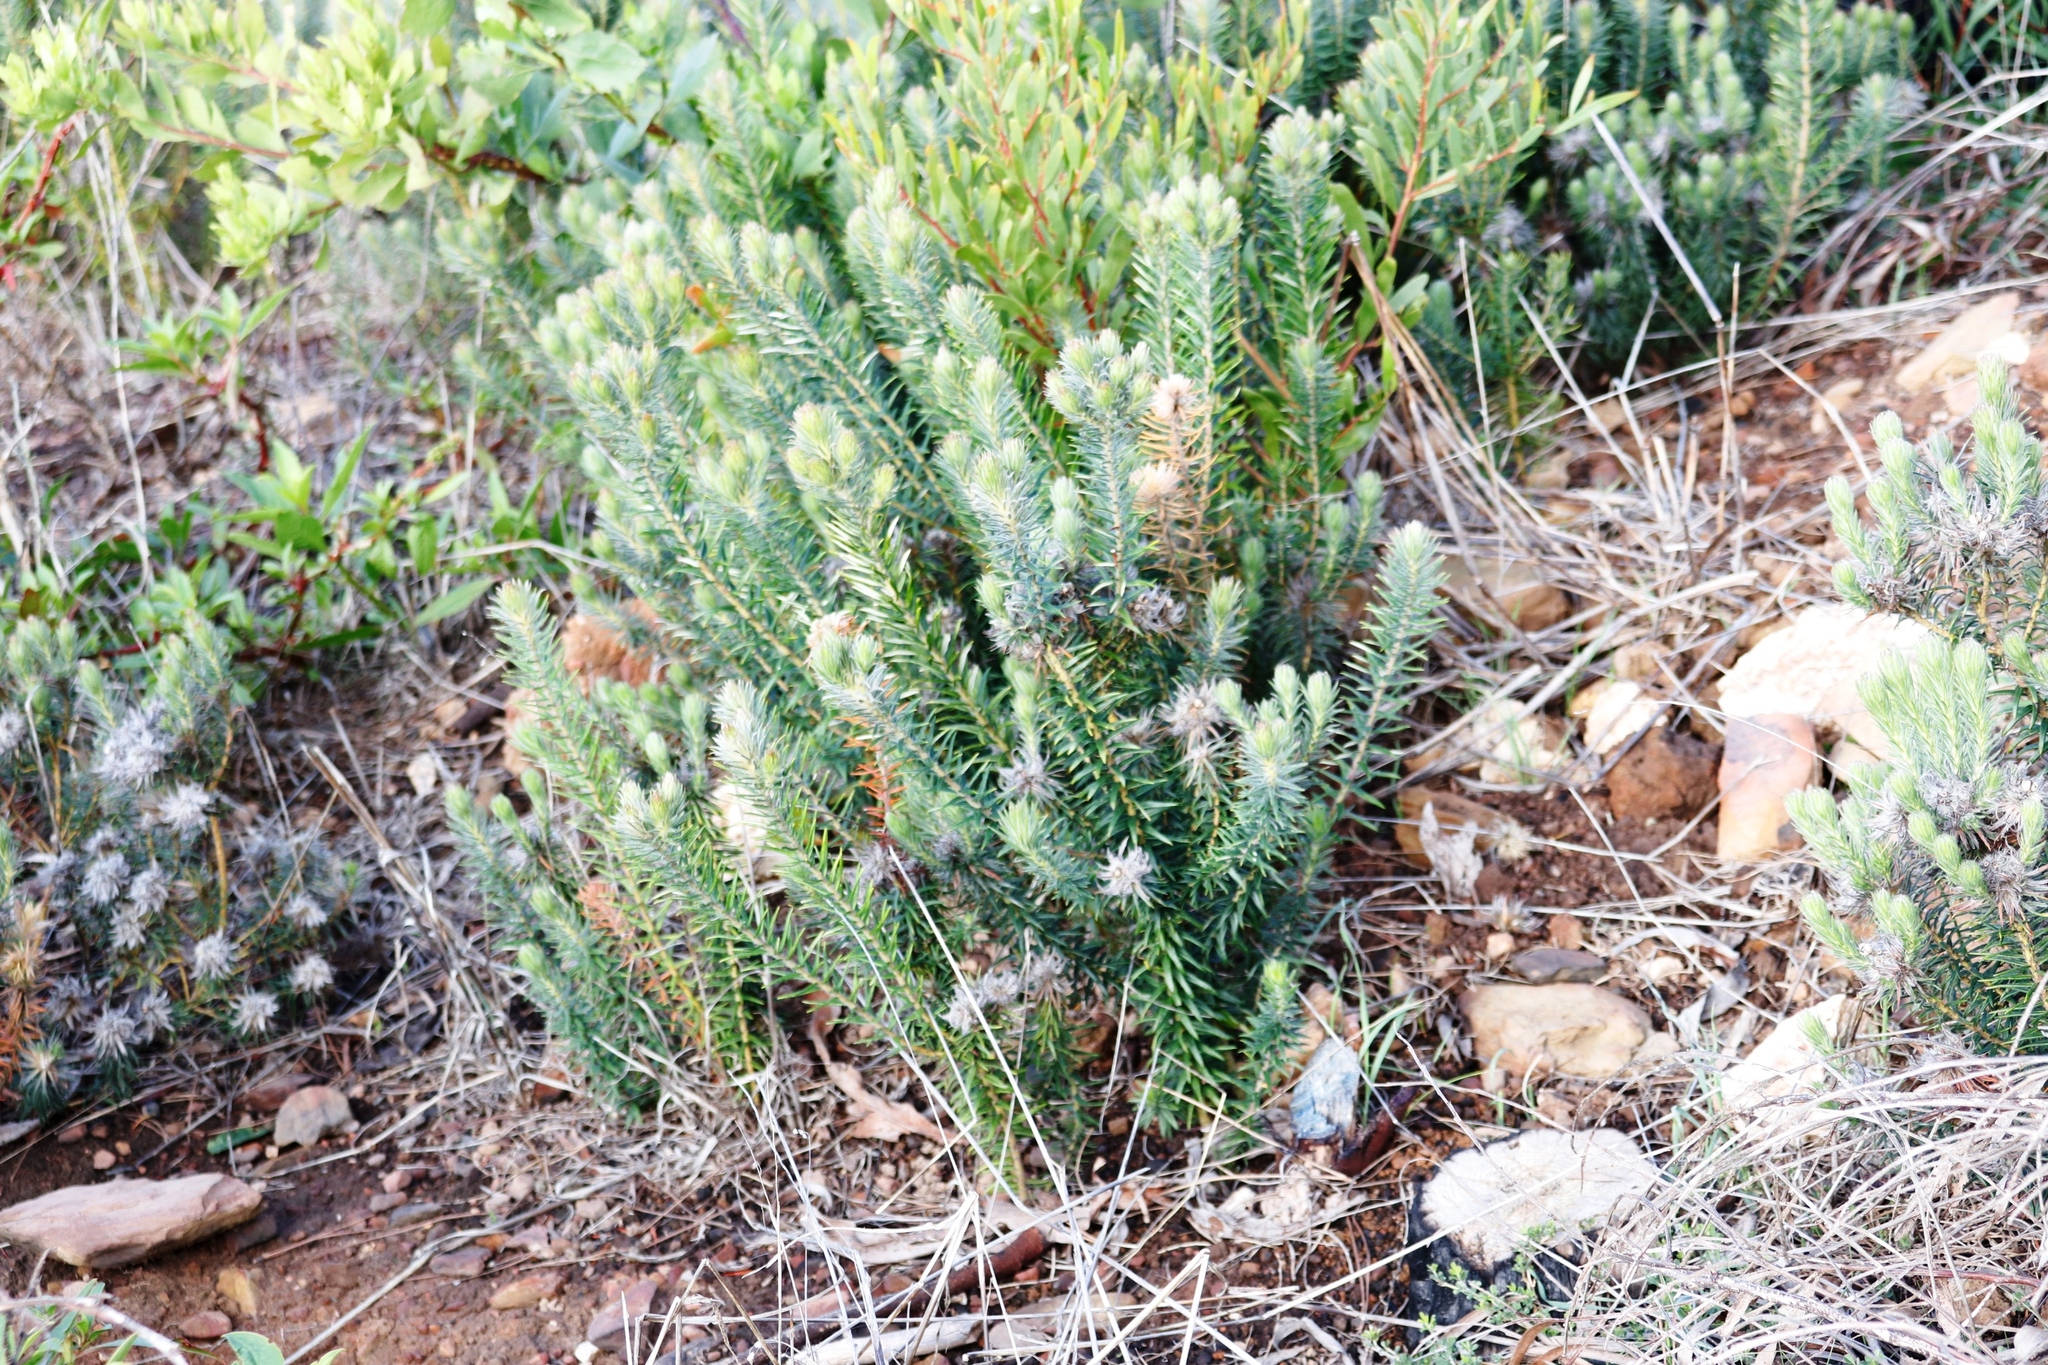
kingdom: Plantae
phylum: Tracheophyta
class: Magnoliopsida
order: Rosales
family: Rhamnaceae
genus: Phylica
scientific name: Phylica pubescens
